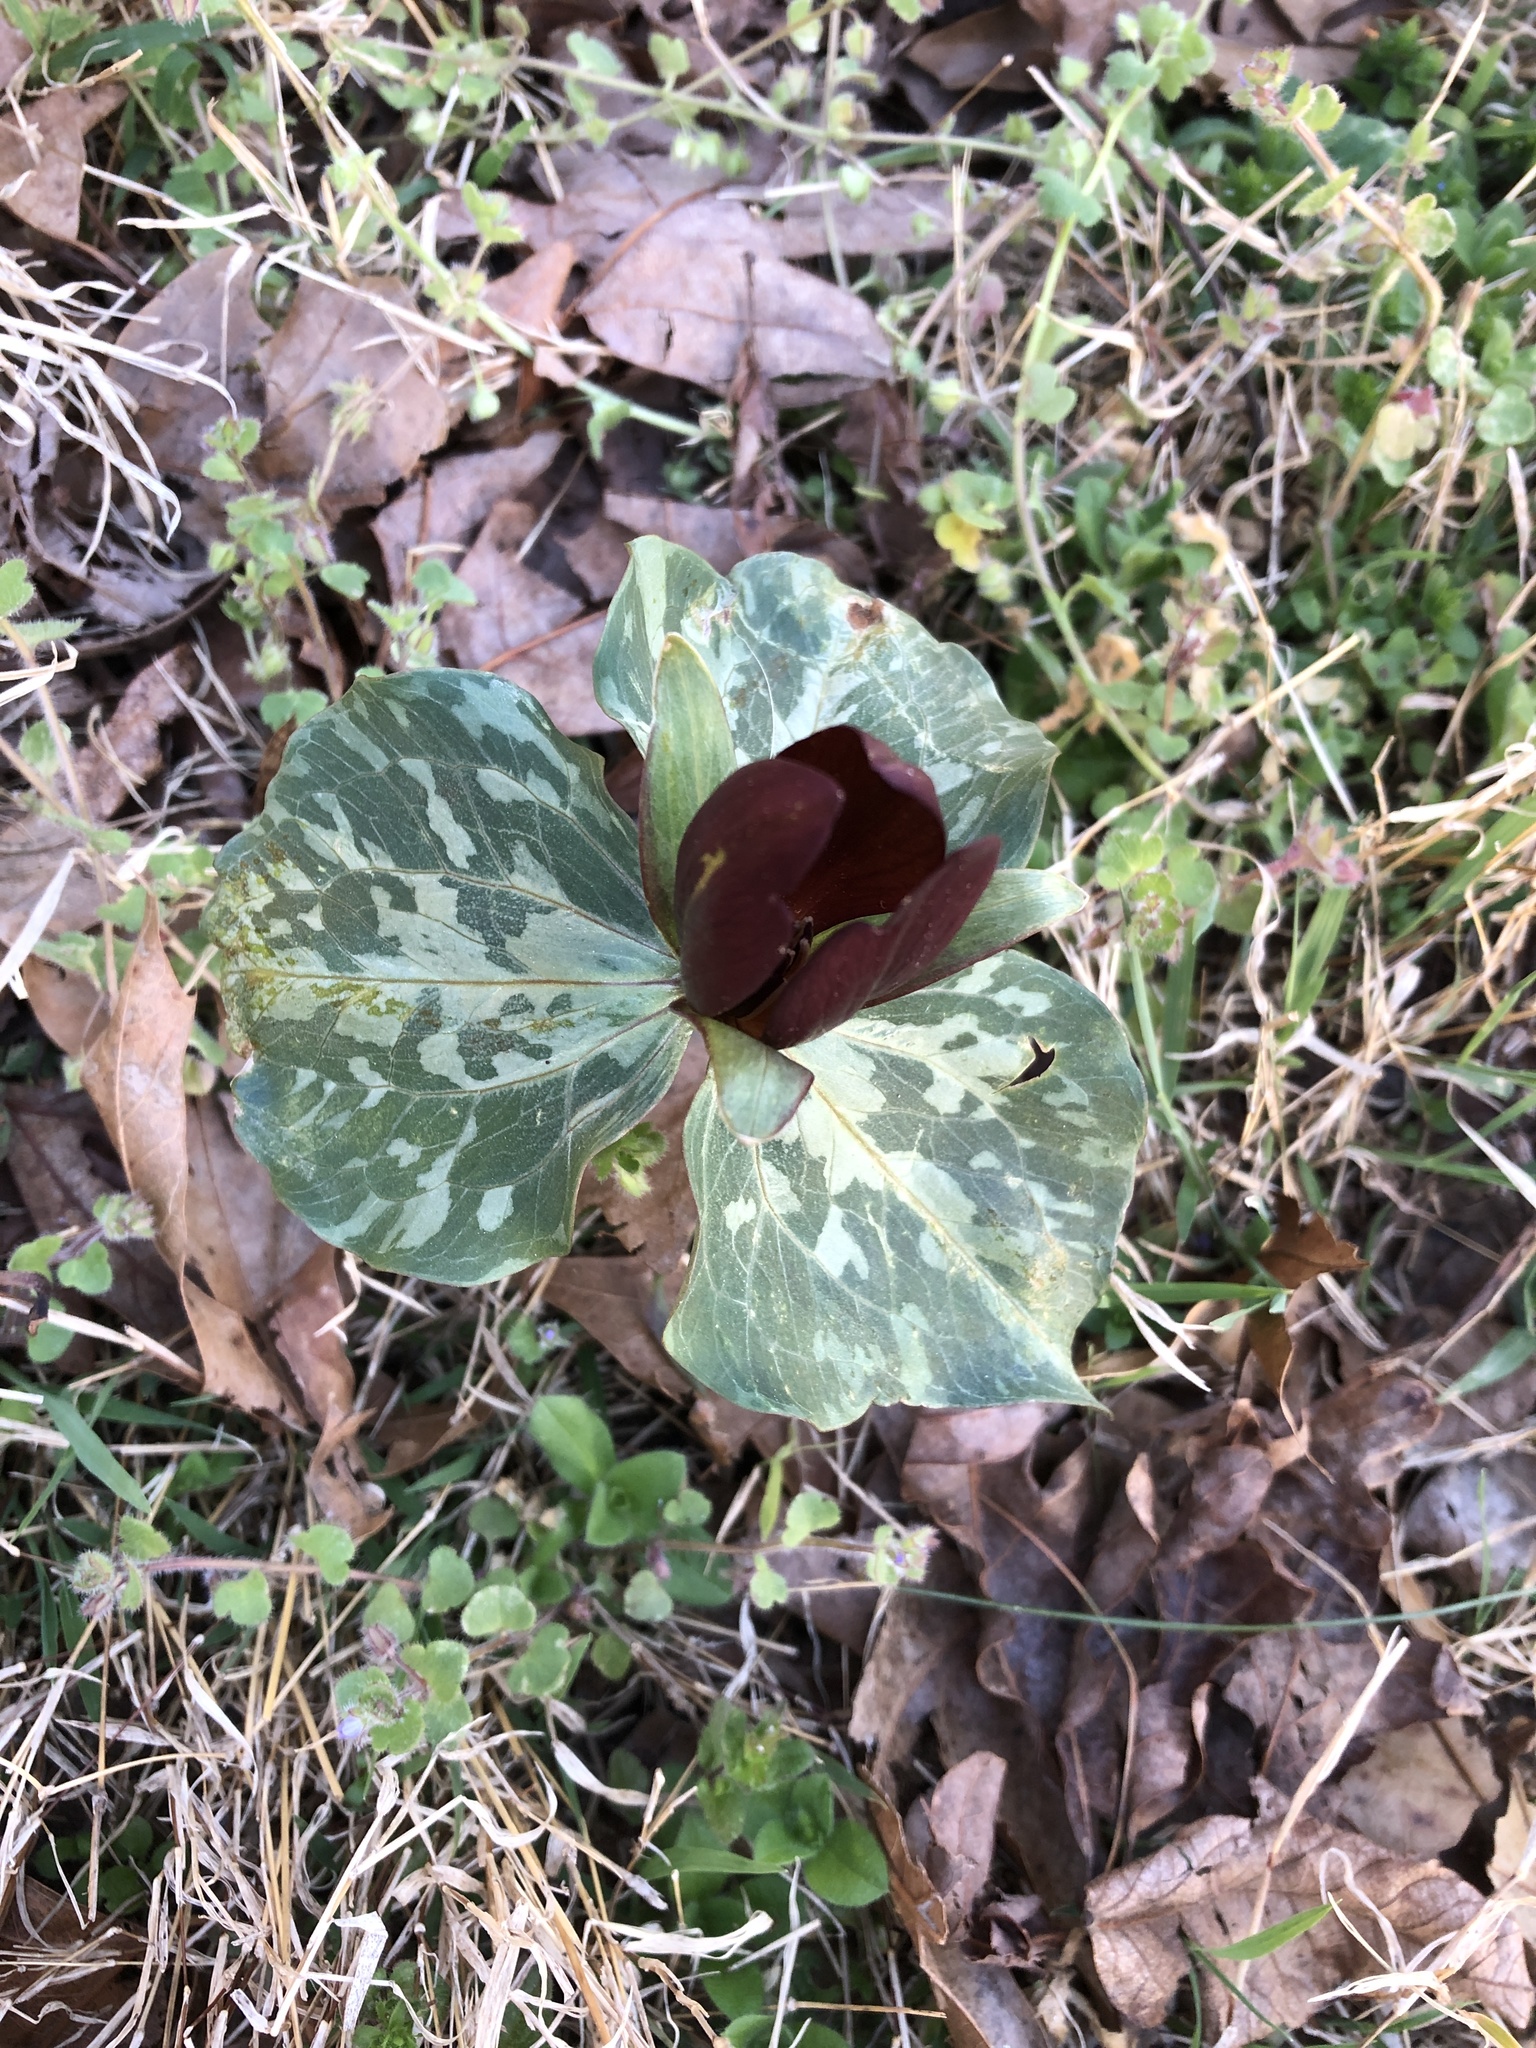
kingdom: Plantae
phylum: Tracheophyta
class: Liliopsida
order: Liliales
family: Melanthiaceae
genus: Trillium
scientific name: Trillium cuneatum
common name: Cuneate trillium
